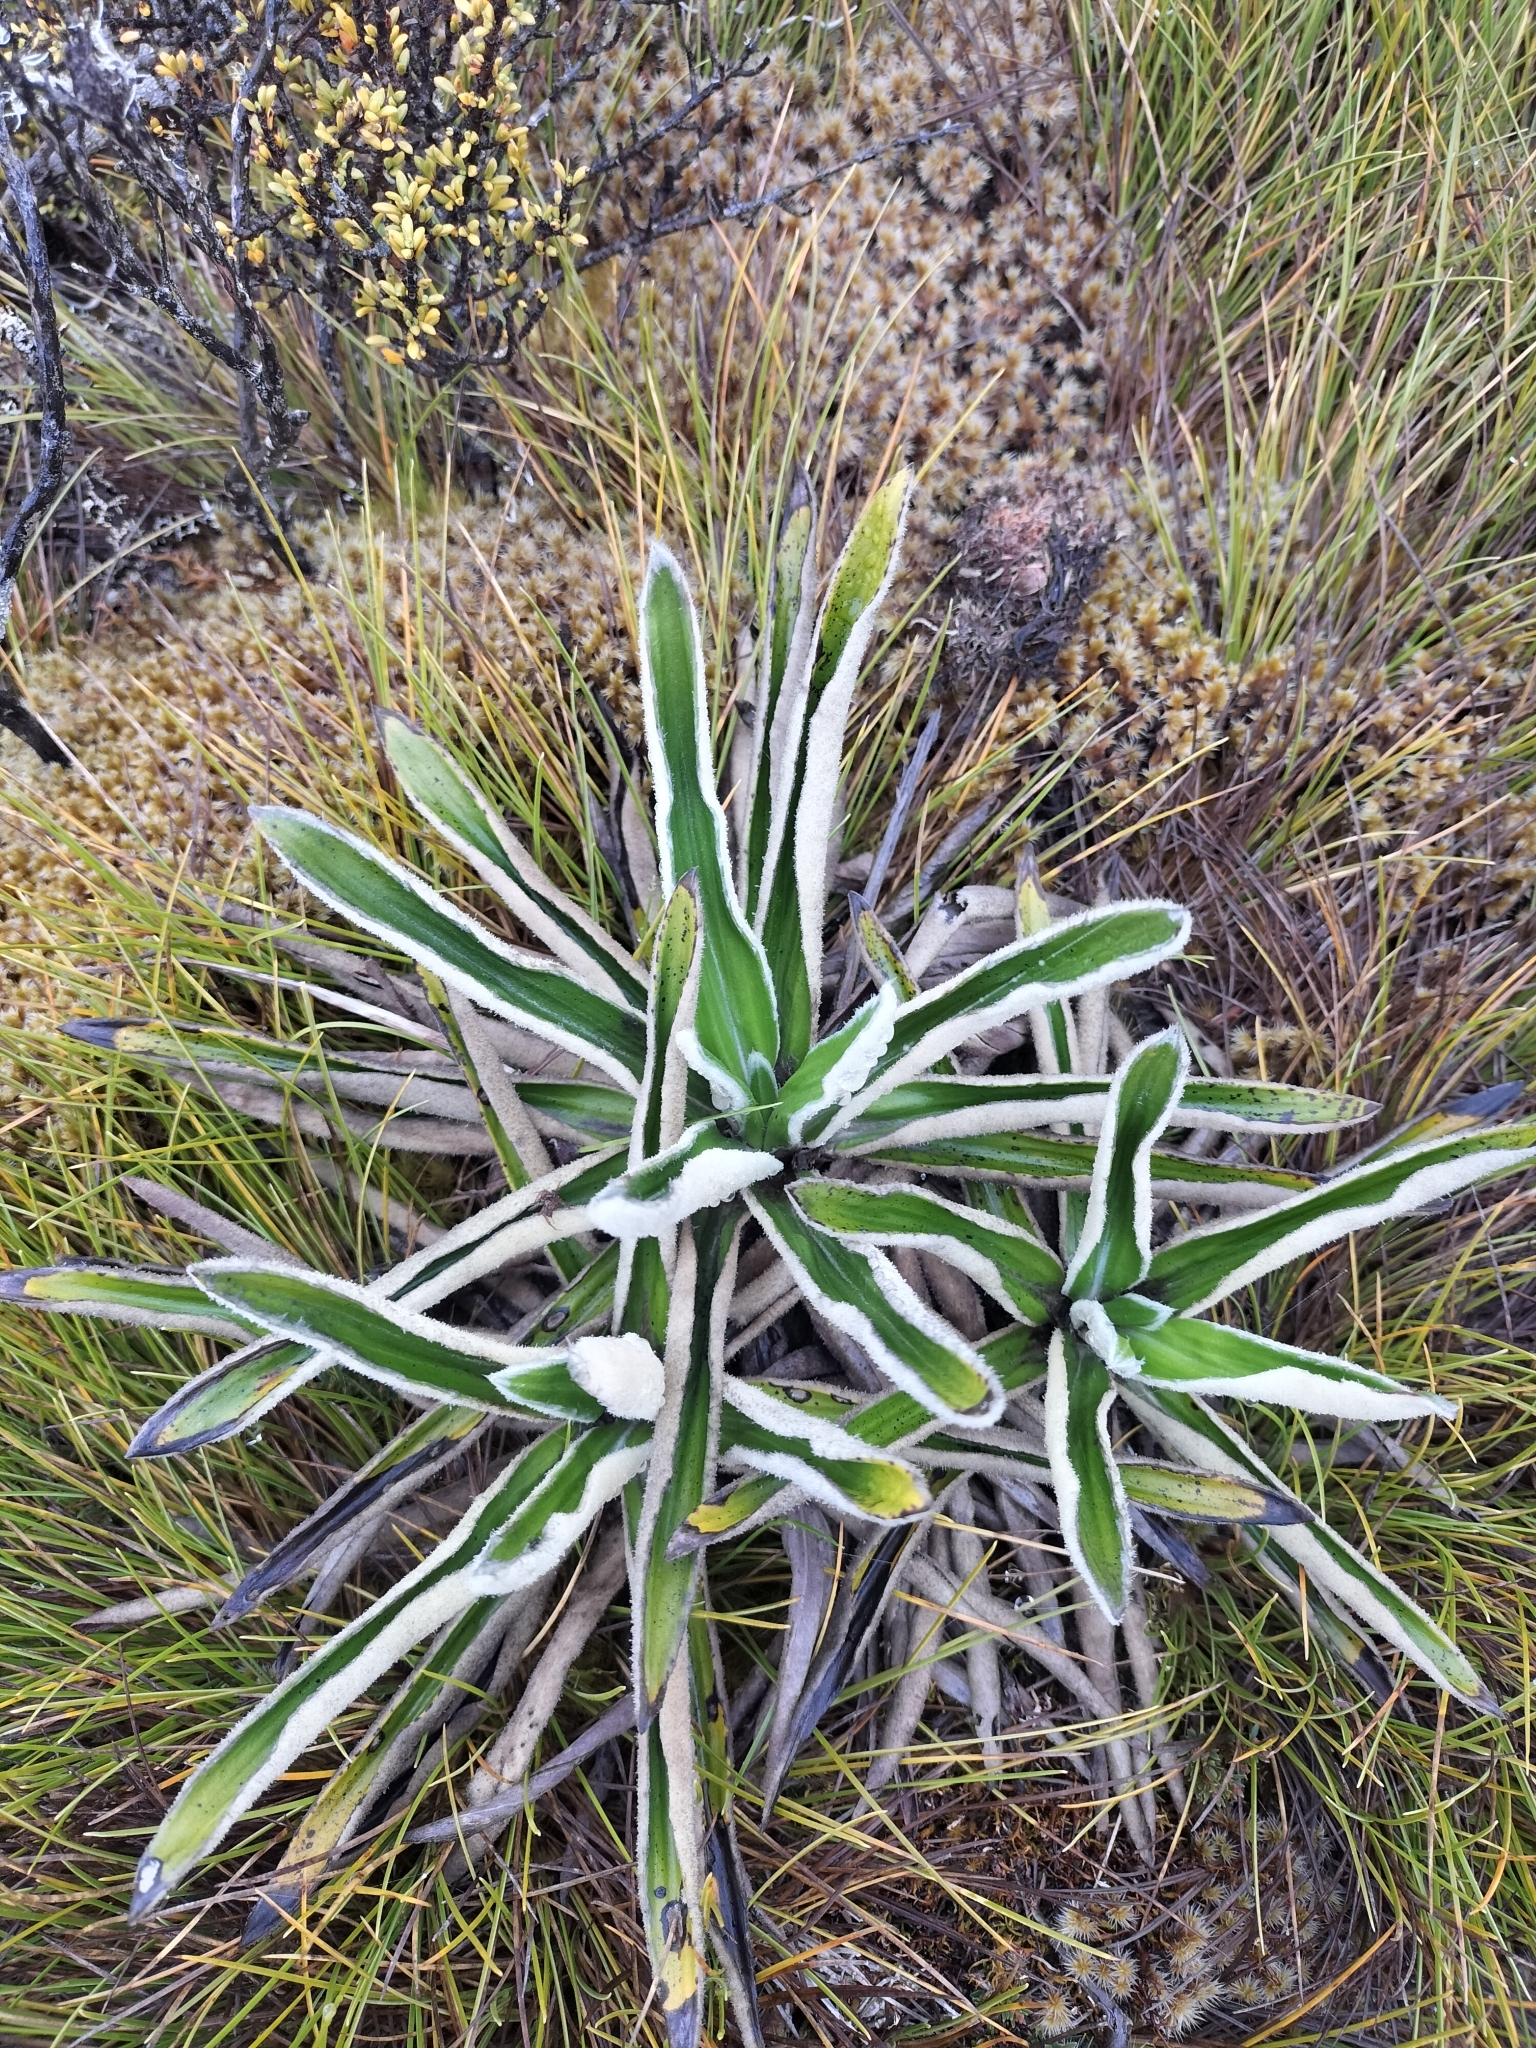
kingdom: Plantae
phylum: Tracheophyta
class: Magnoliopsida
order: Asterales
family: Asteraceae
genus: Celmisia
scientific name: Celmisia spectabilis
